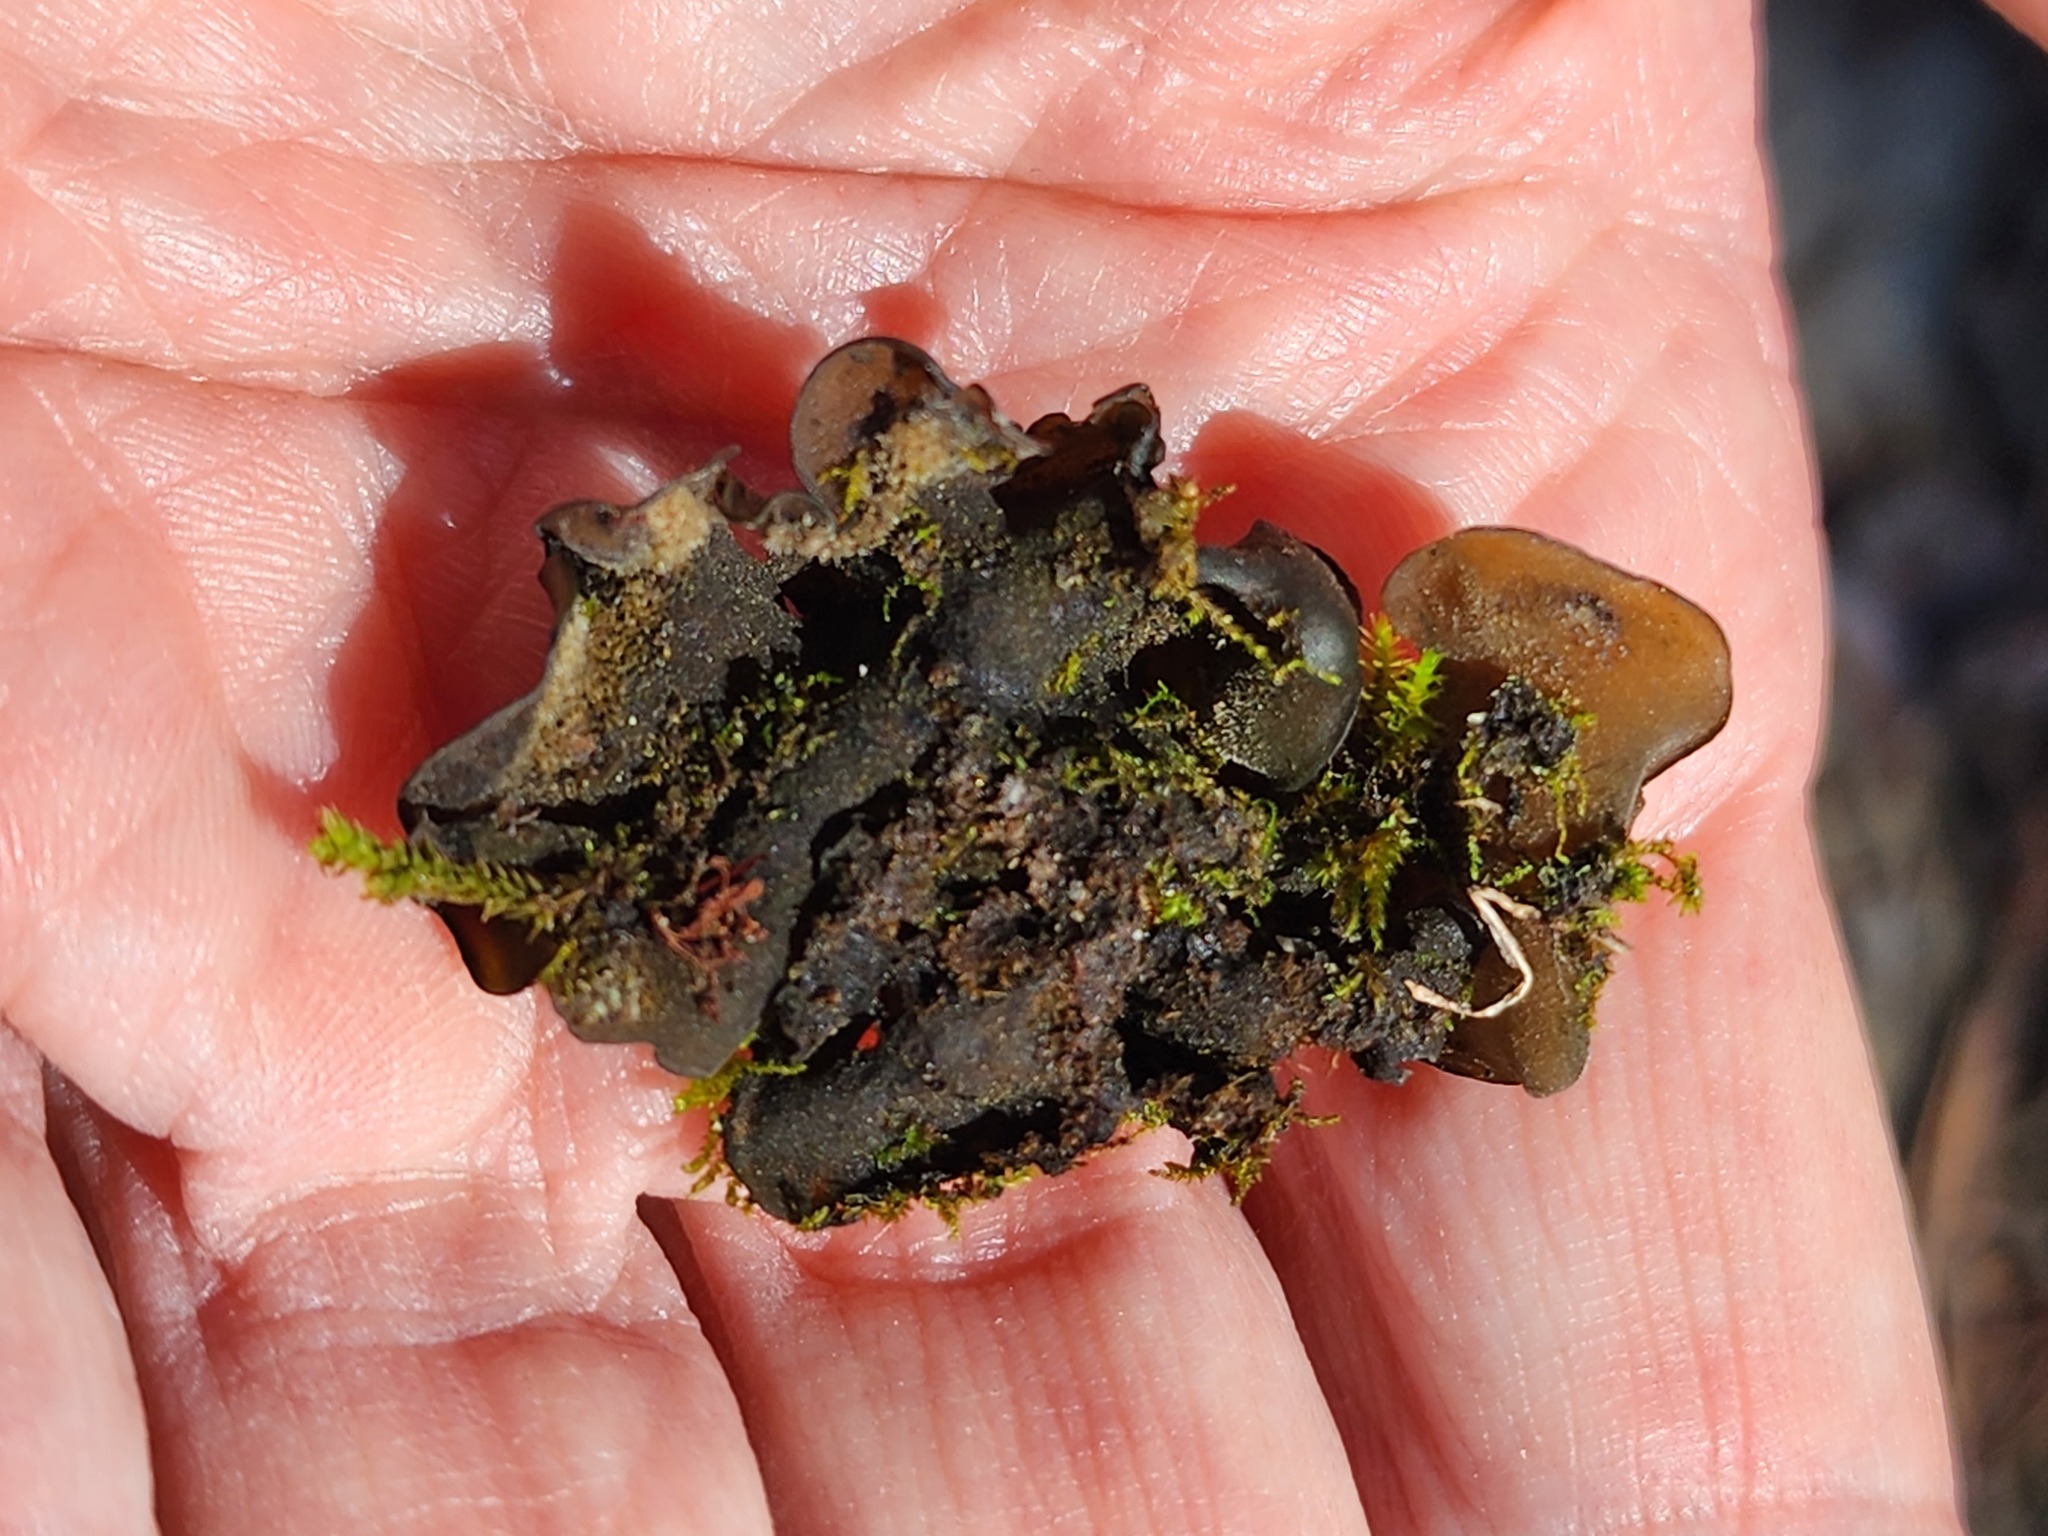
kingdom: Fungi
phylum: Ascomycota
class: Lecanoromycetes
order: Peltigerales
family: Collemataceae
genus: Collema
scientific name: Collema subflaccidum
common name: Tree jelly
